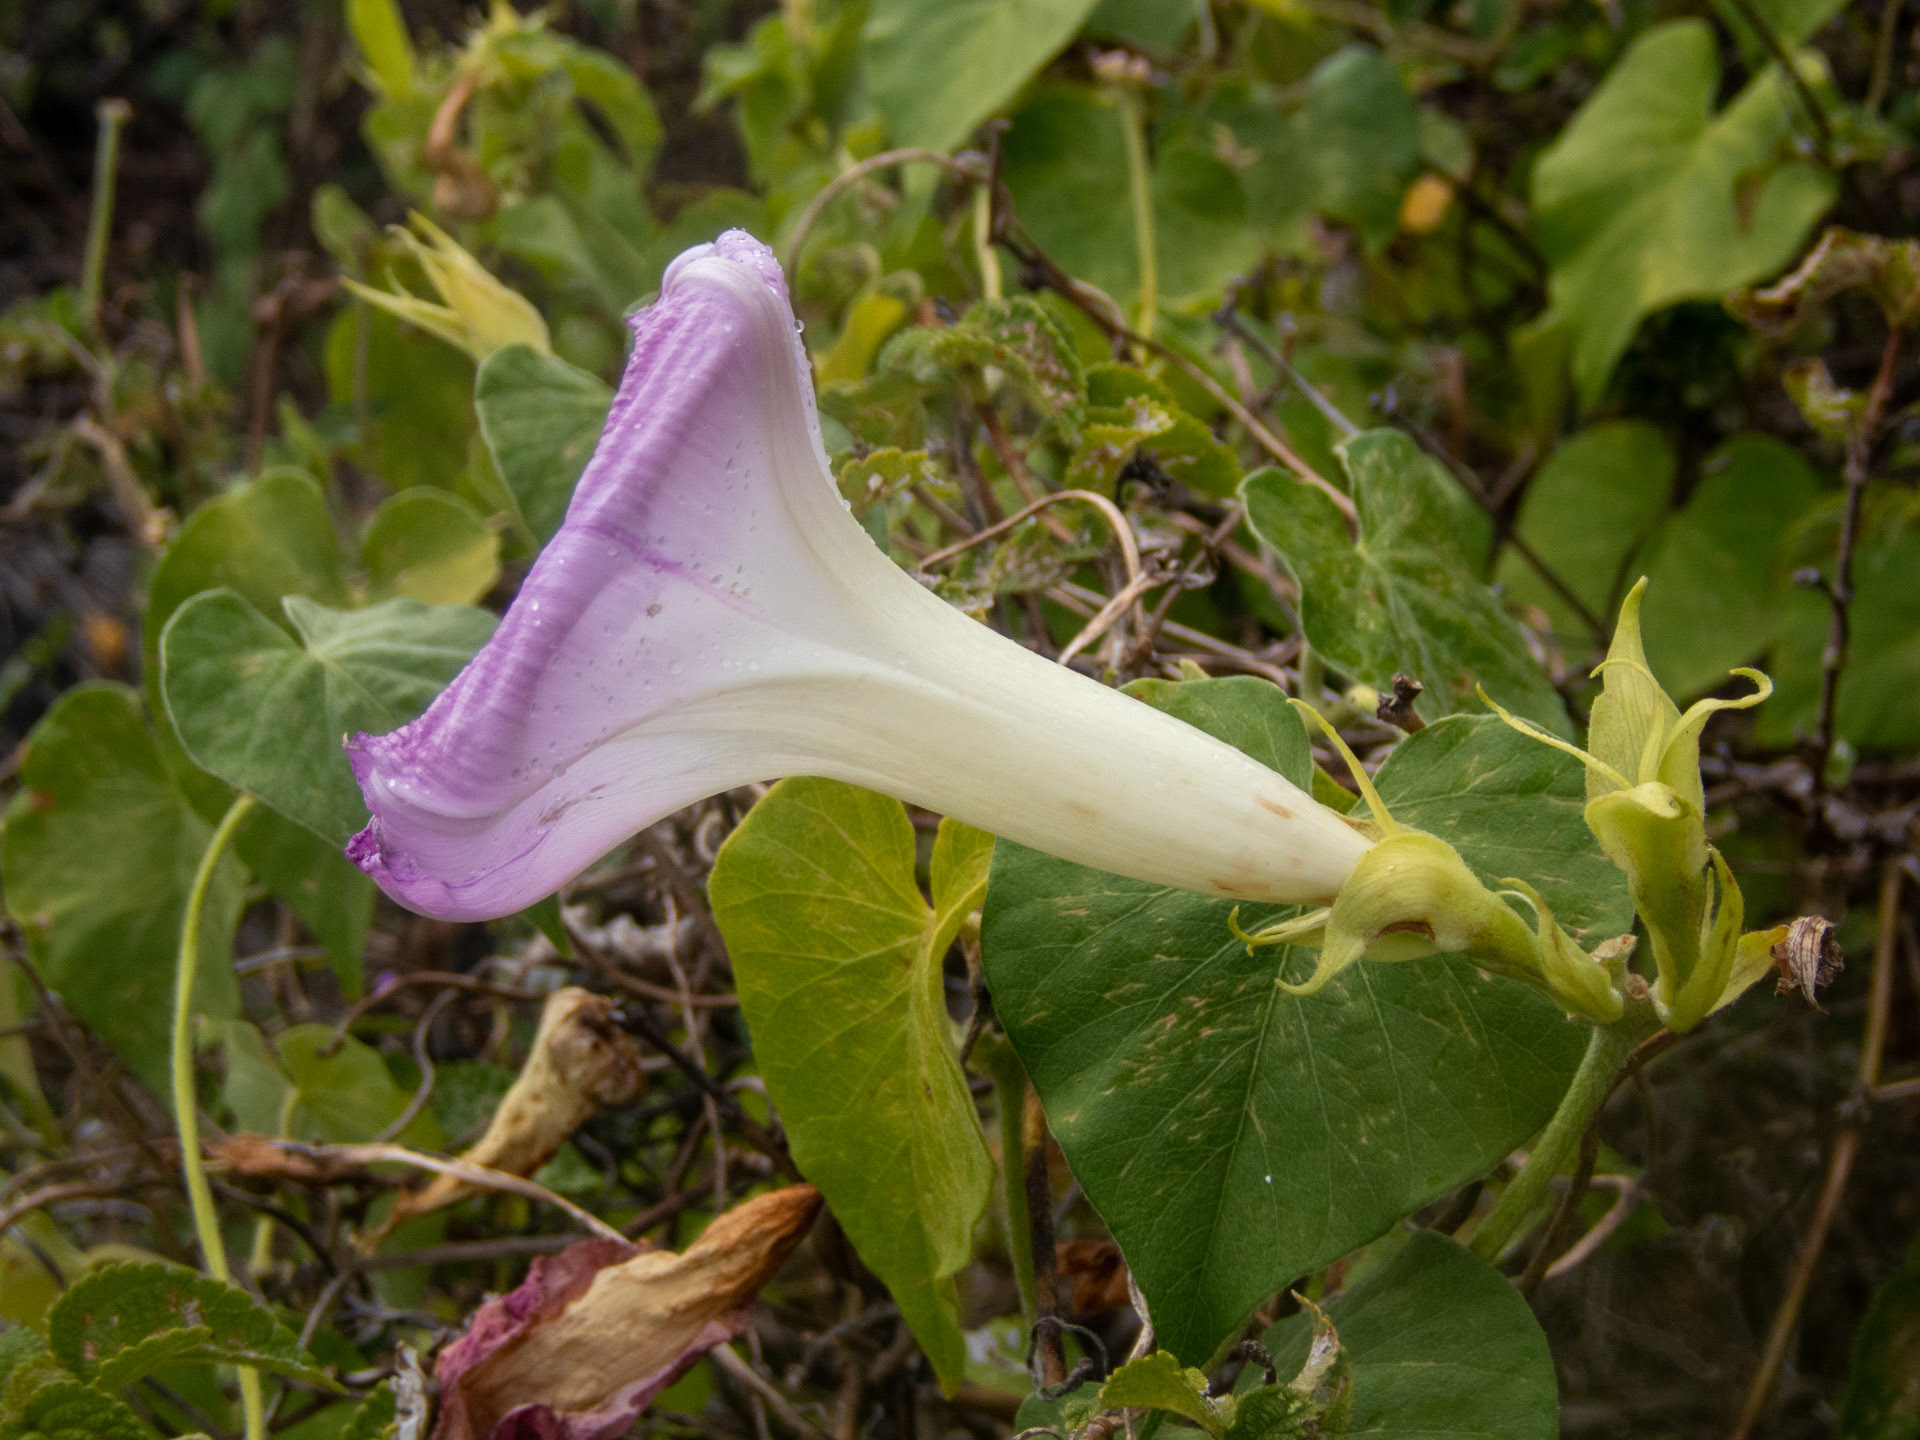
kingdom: Plantae
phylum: Tracheophyta
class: Magnoliopsida
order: Solanales
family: Convolvulaceae
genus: Ipomoea
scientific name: Ipomoea indica
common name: Blue dawnflower
